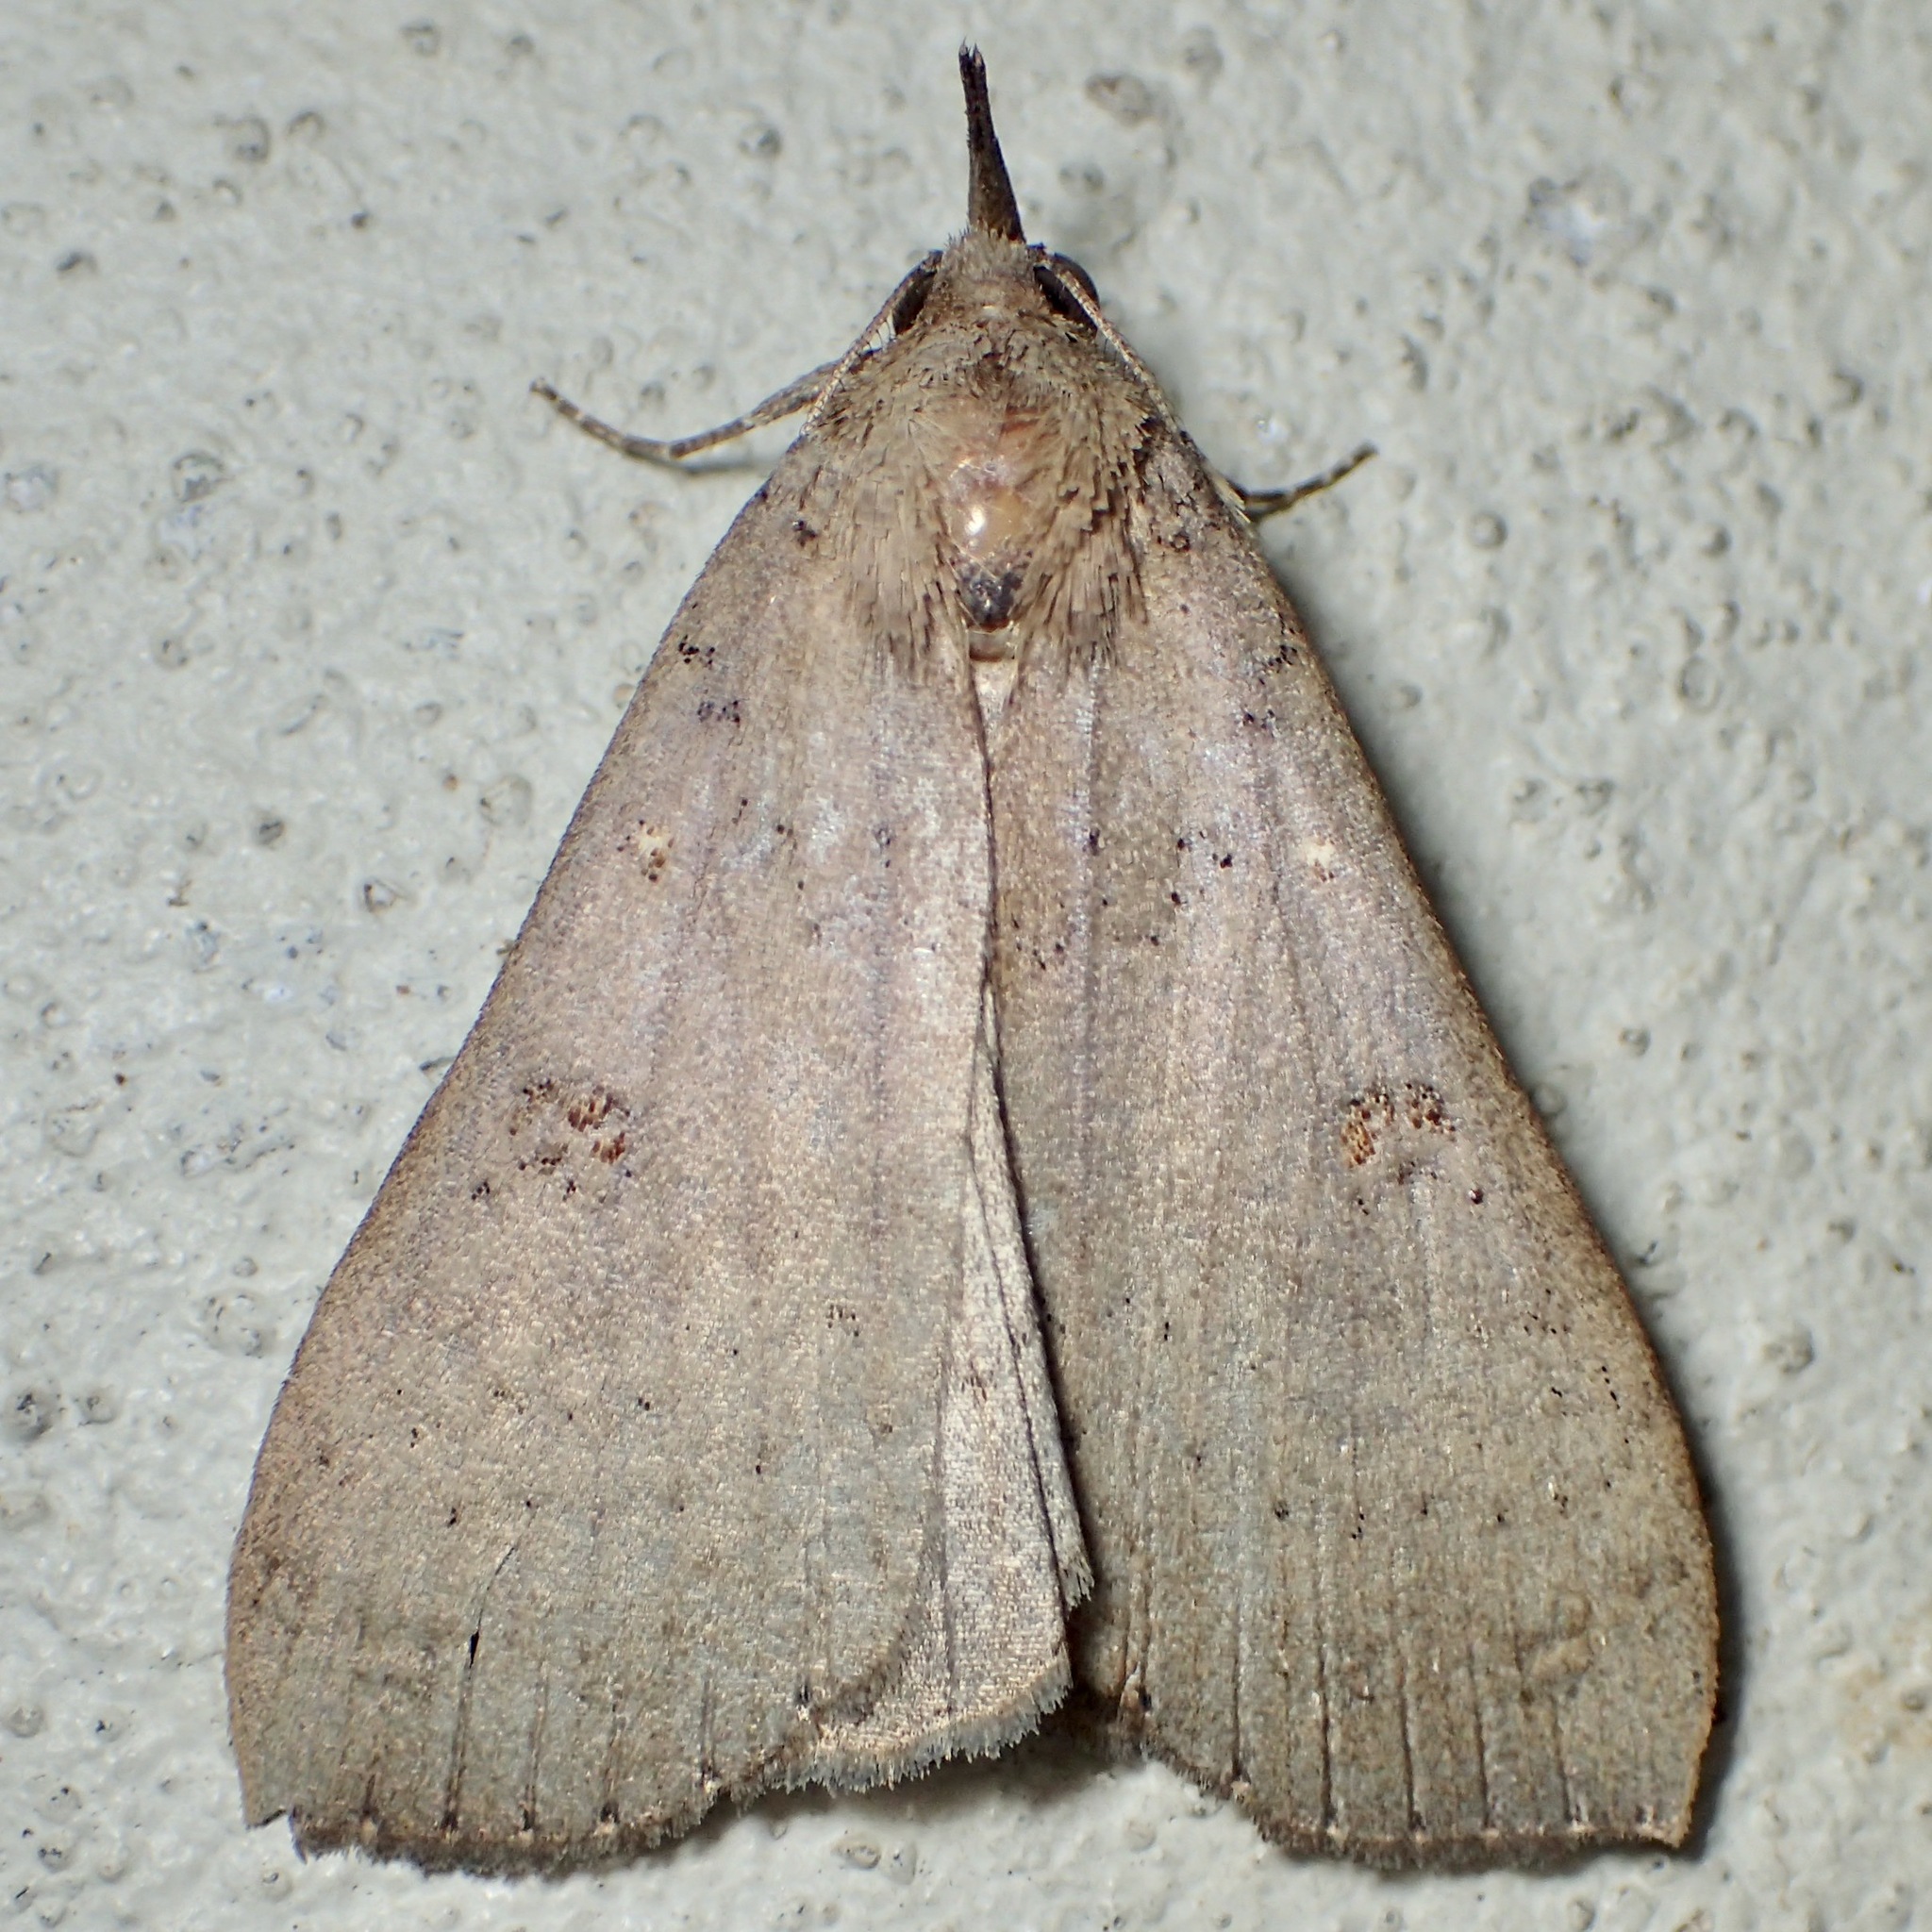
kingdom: Animalia
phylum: Arthropoda
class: Insecta
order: Lepidoptera
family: Erebidae
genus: Rhapsa
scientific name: Rhapsa suscitatalis
